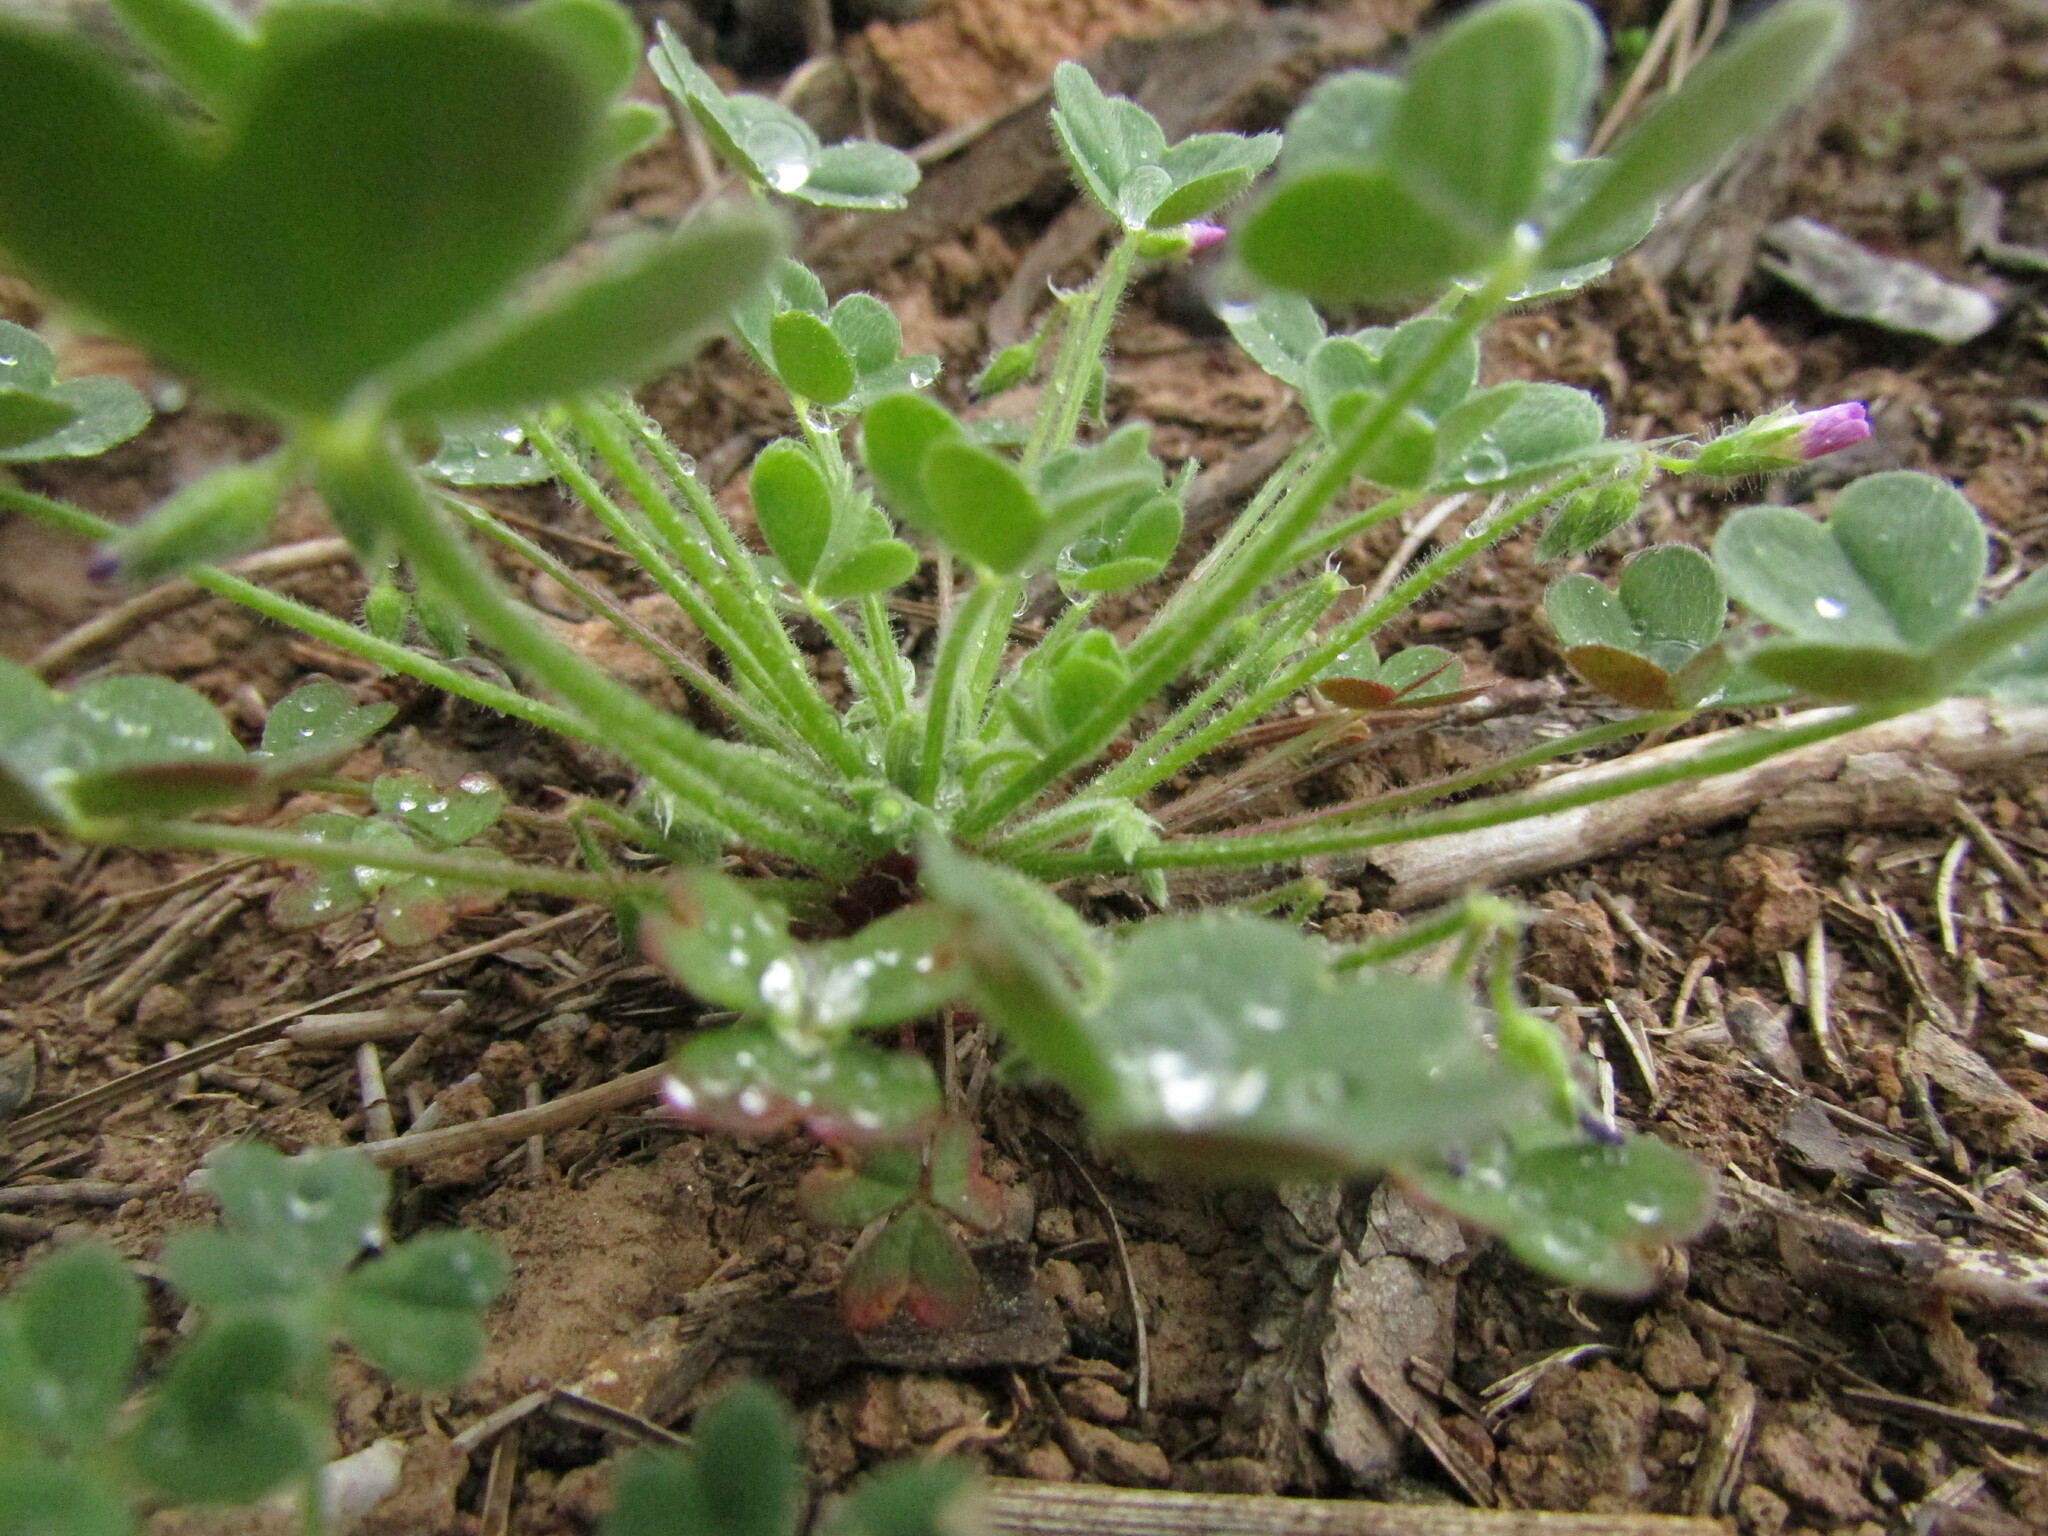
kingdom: Plantae
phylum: Tracheophyta
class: Magnoliopsida
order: Oxalidales
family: Oxalidaceae
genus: Oxalis
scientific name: Oxalis clandestina
